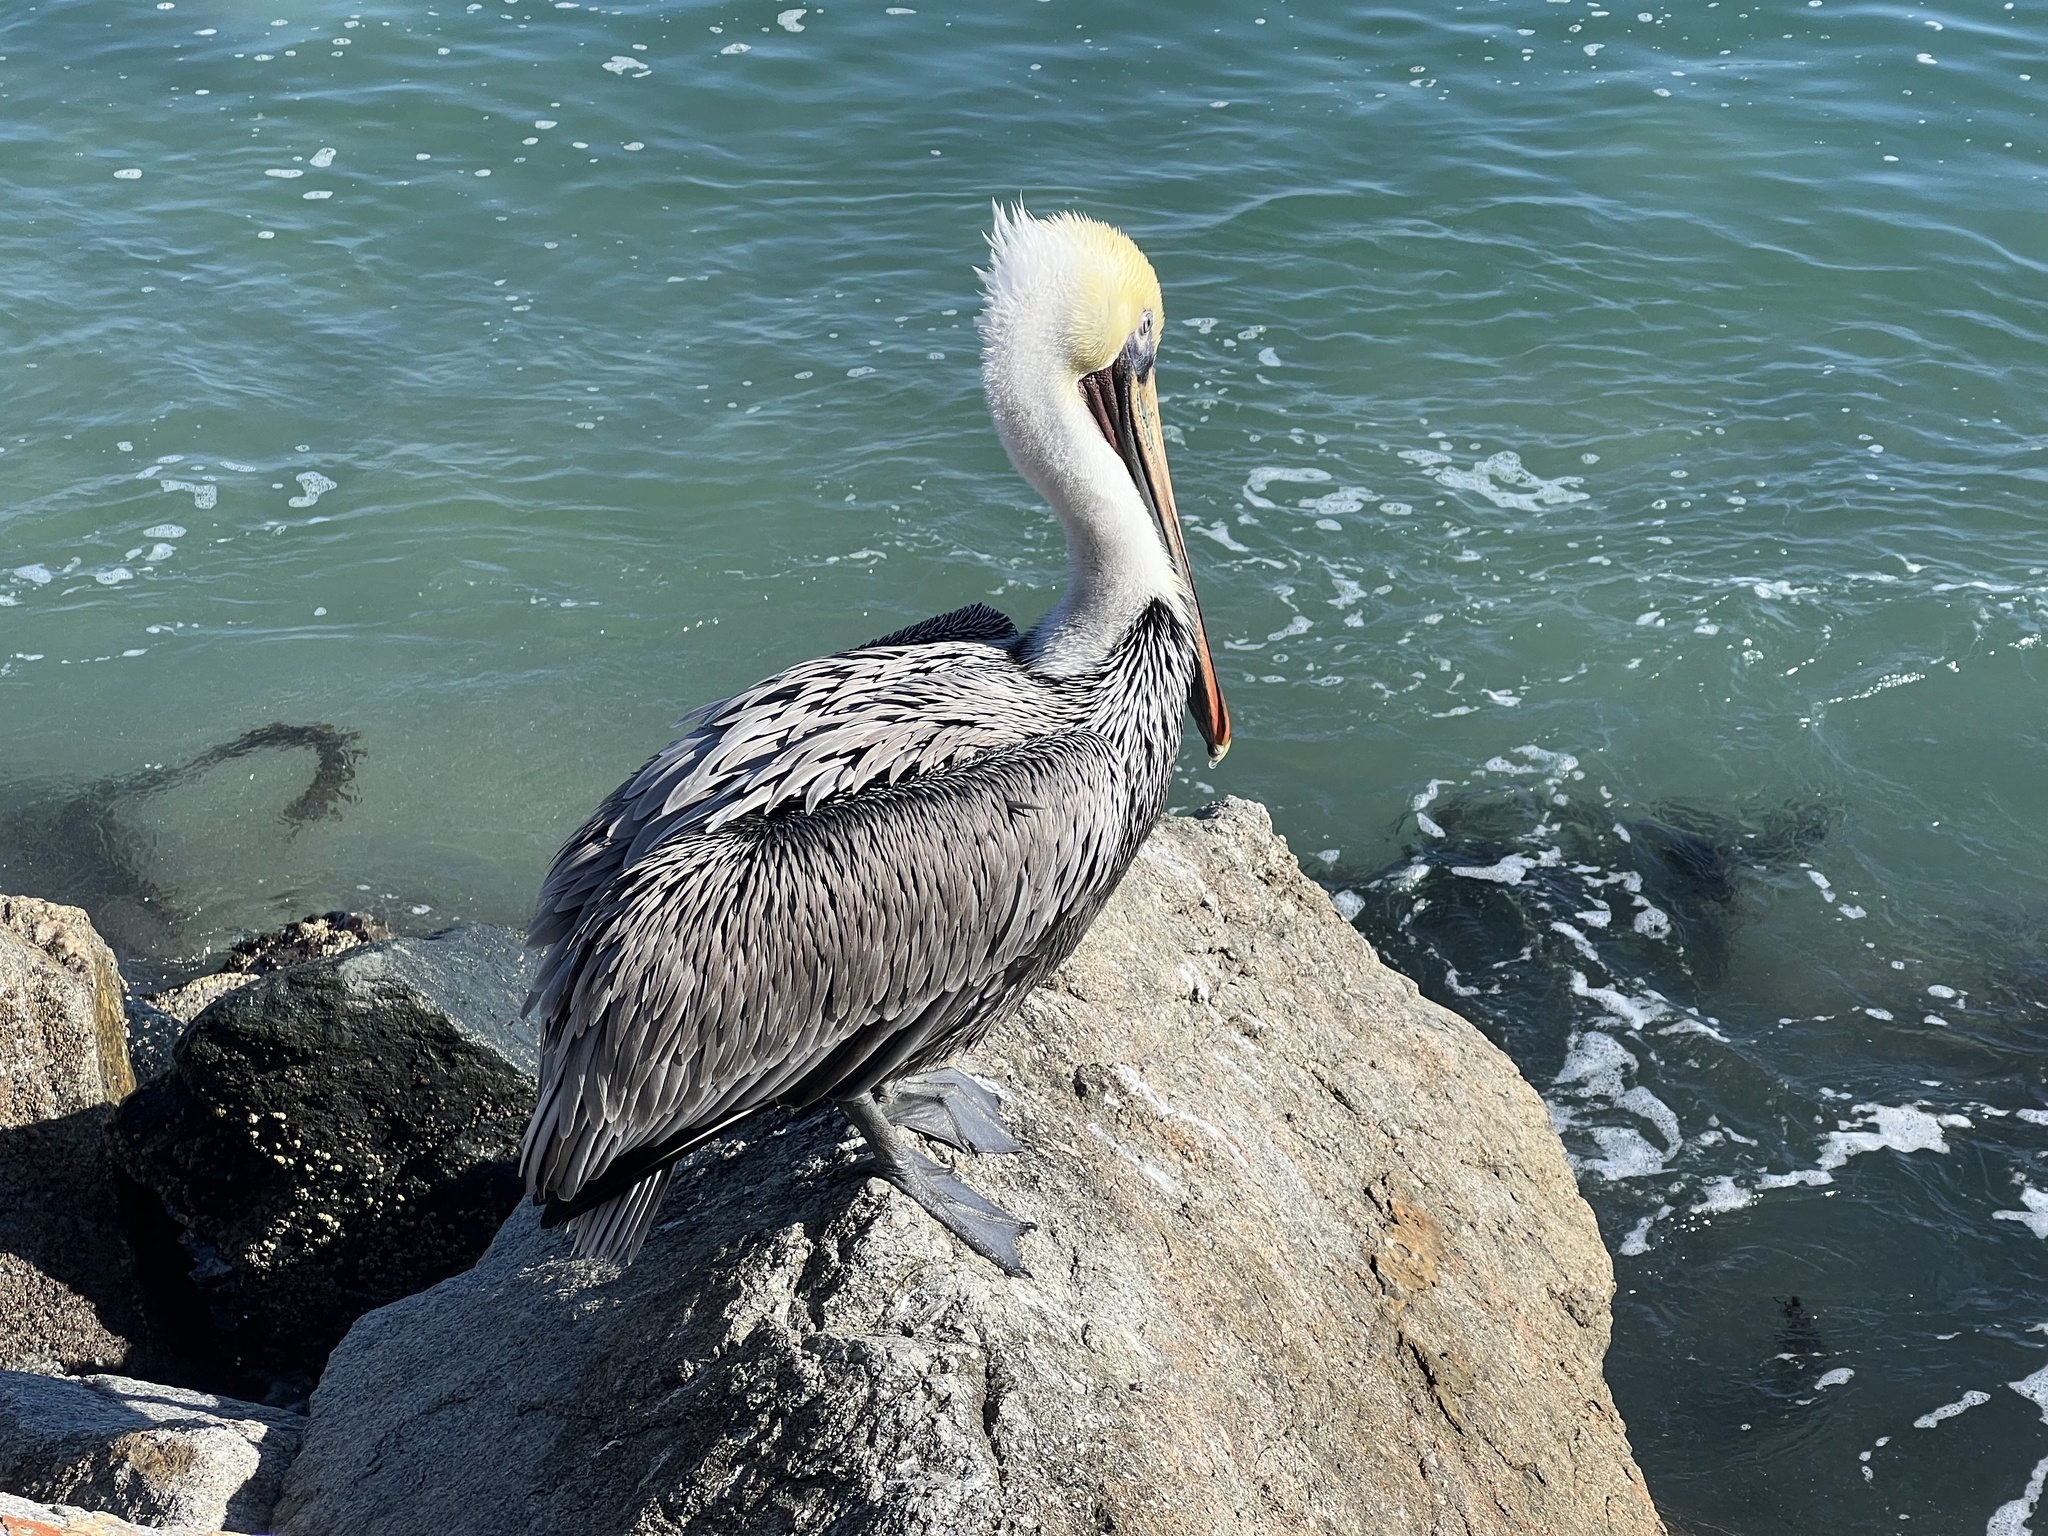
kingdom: Animalia
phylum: Chordata
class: Aves
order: Pelecaniformes
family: Pelecanidae
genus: Pelecanus
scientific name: Pelecanus occidentalis
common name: Brown pelican
